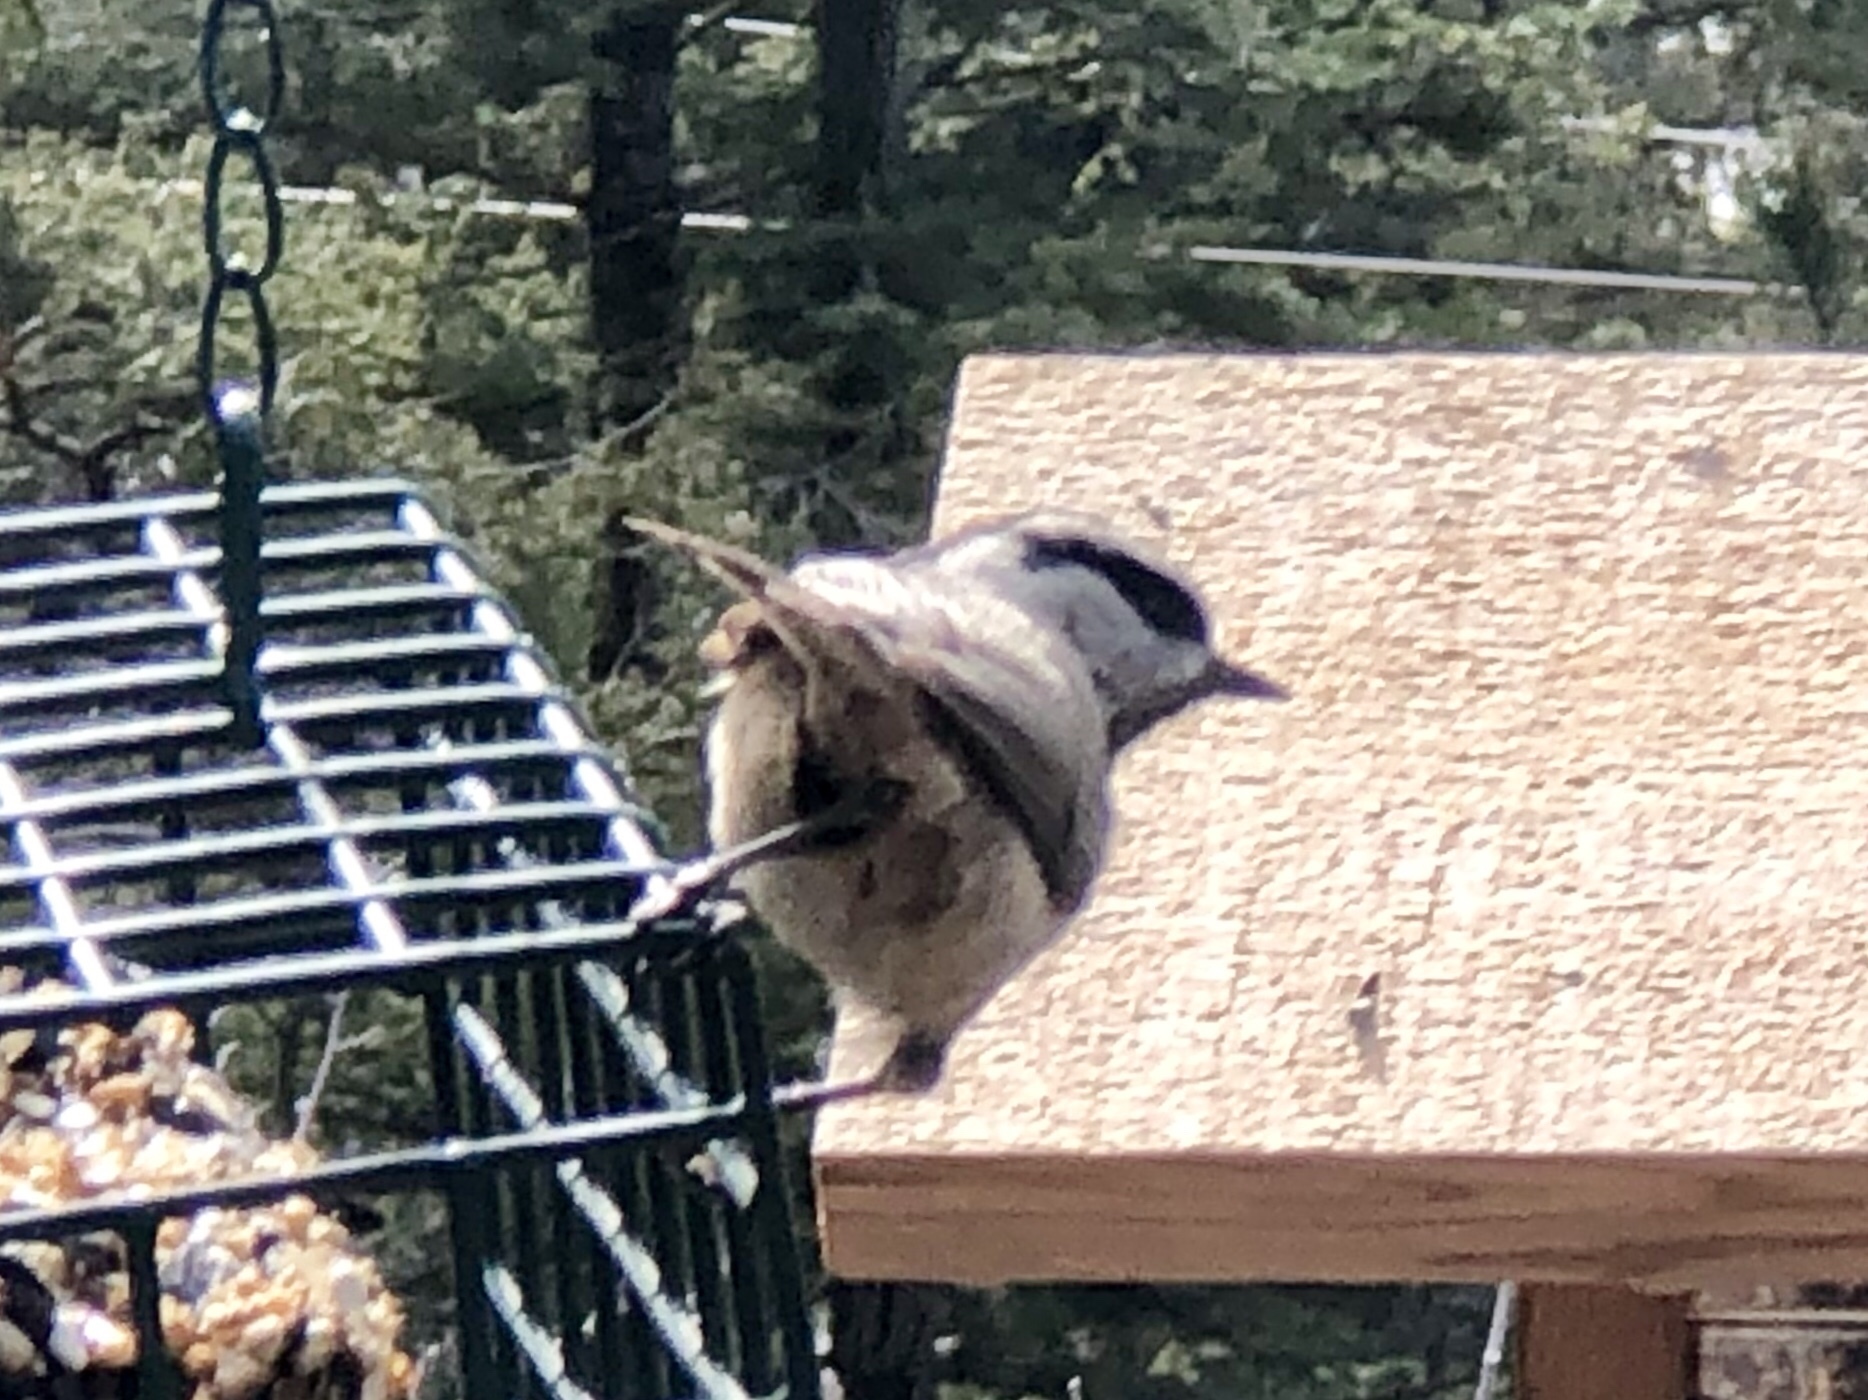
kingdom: Animalia
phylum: Chordata
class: Aves
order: Passeriformes
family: Paridae
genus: Poecile
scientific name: Poecile gambeli
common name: Mountain chickadee
